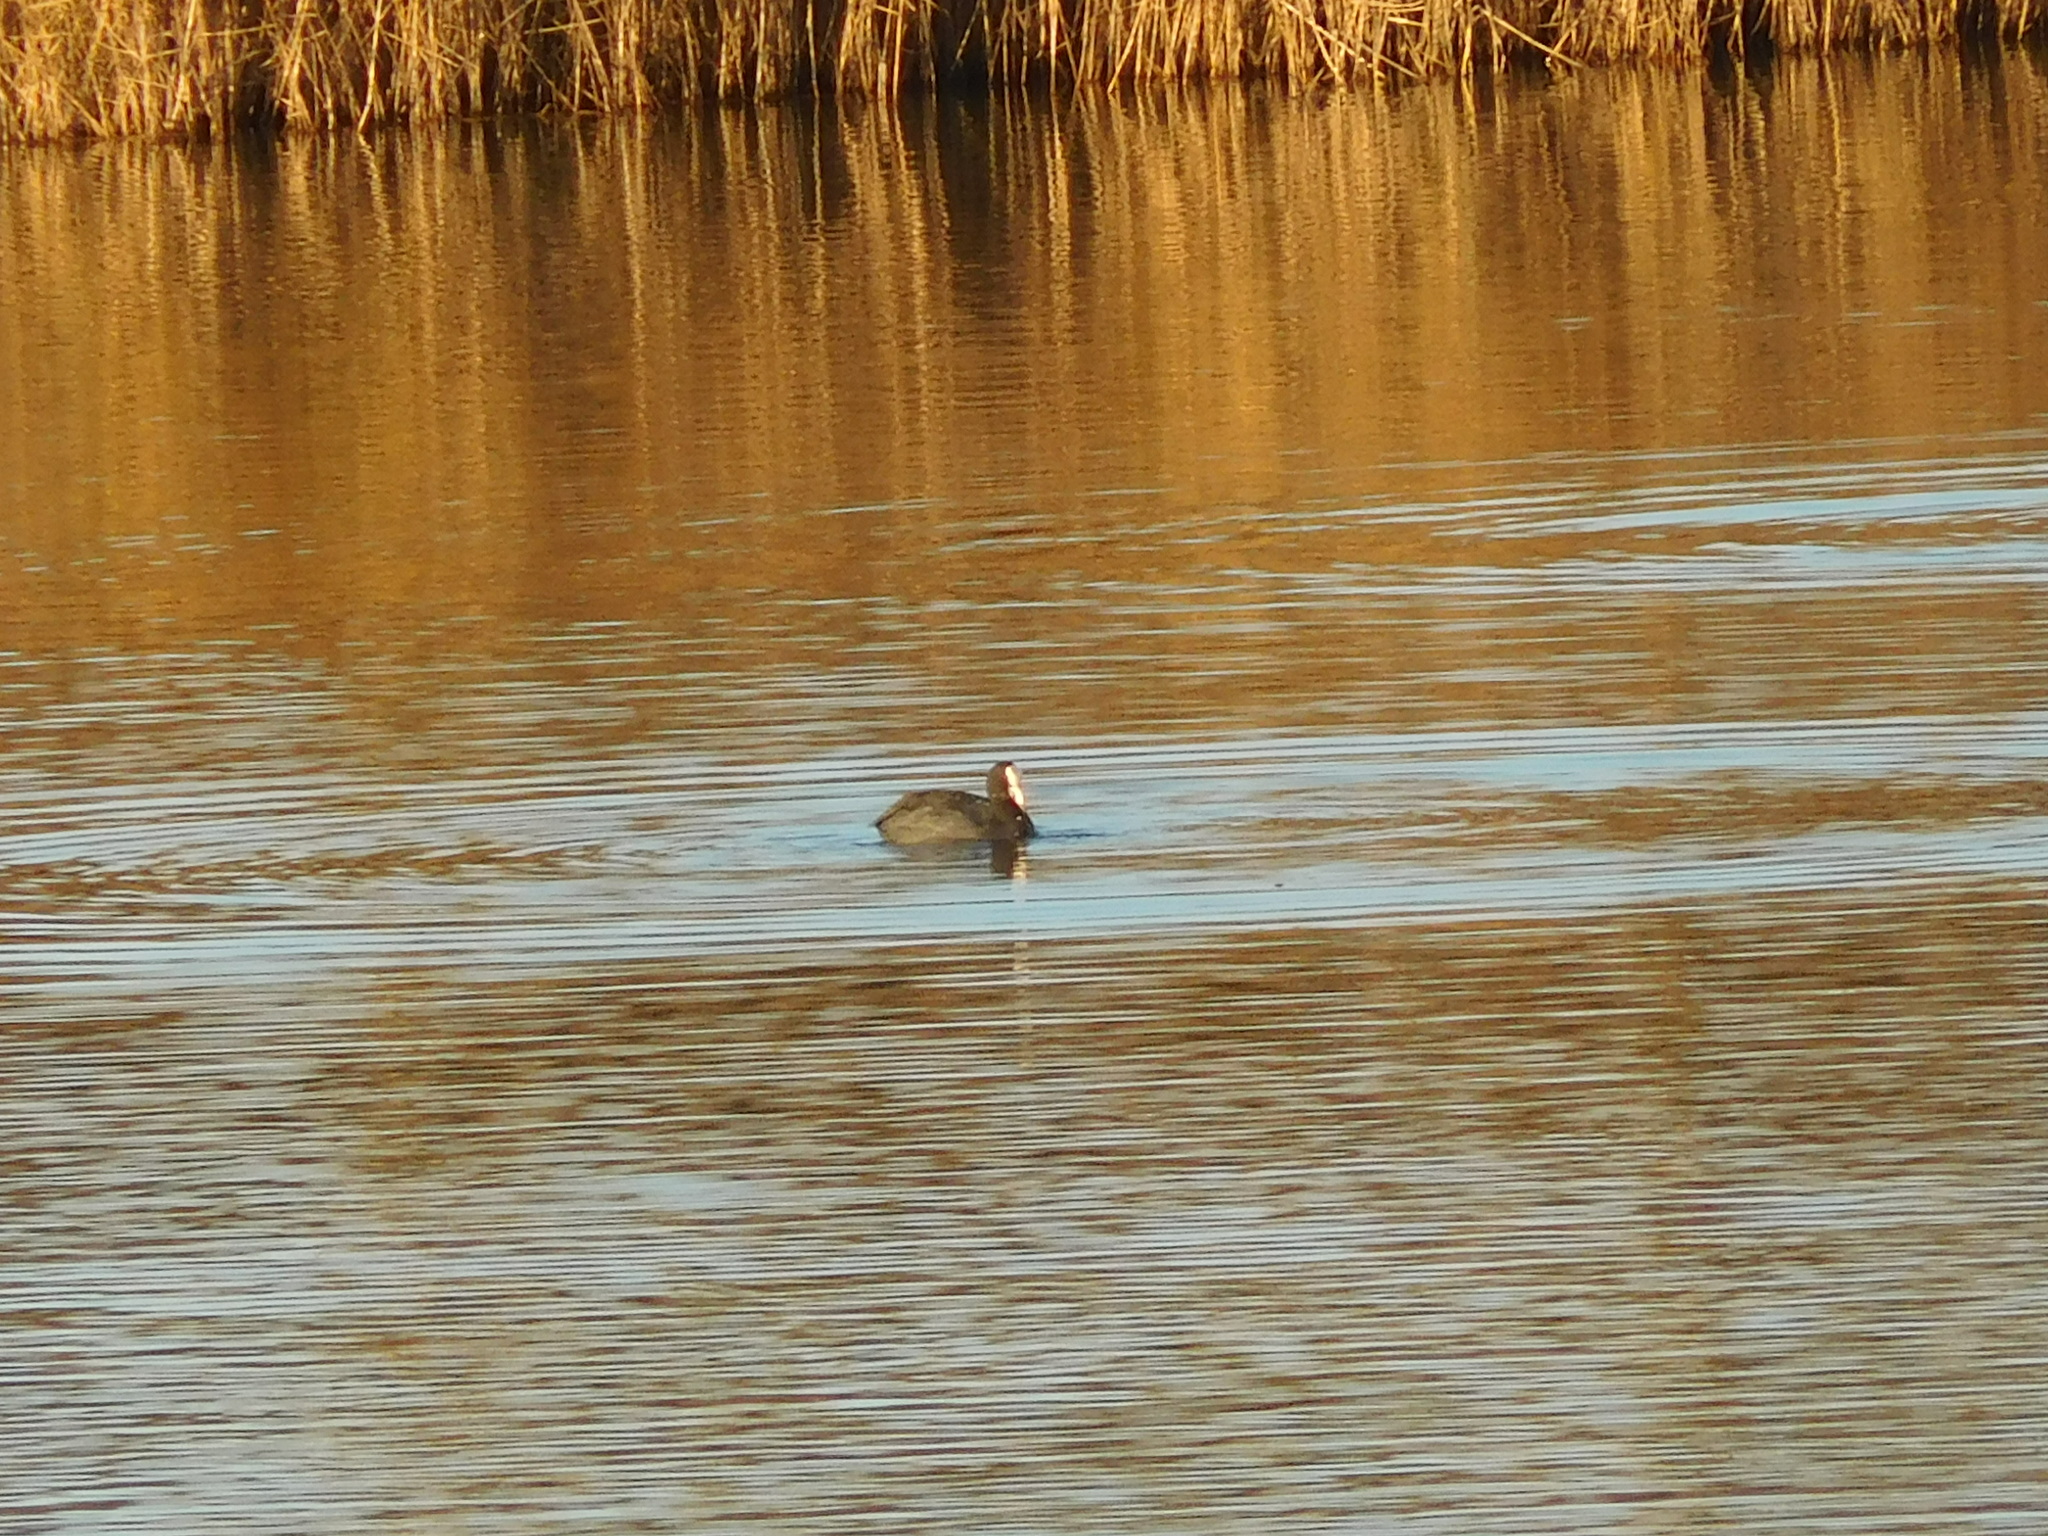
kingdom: Animalia
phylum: Chordata
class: Aves
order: Gruiformes
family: Rallidae
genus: Fulica
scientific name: Fulica atra
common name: Eurasian coot
